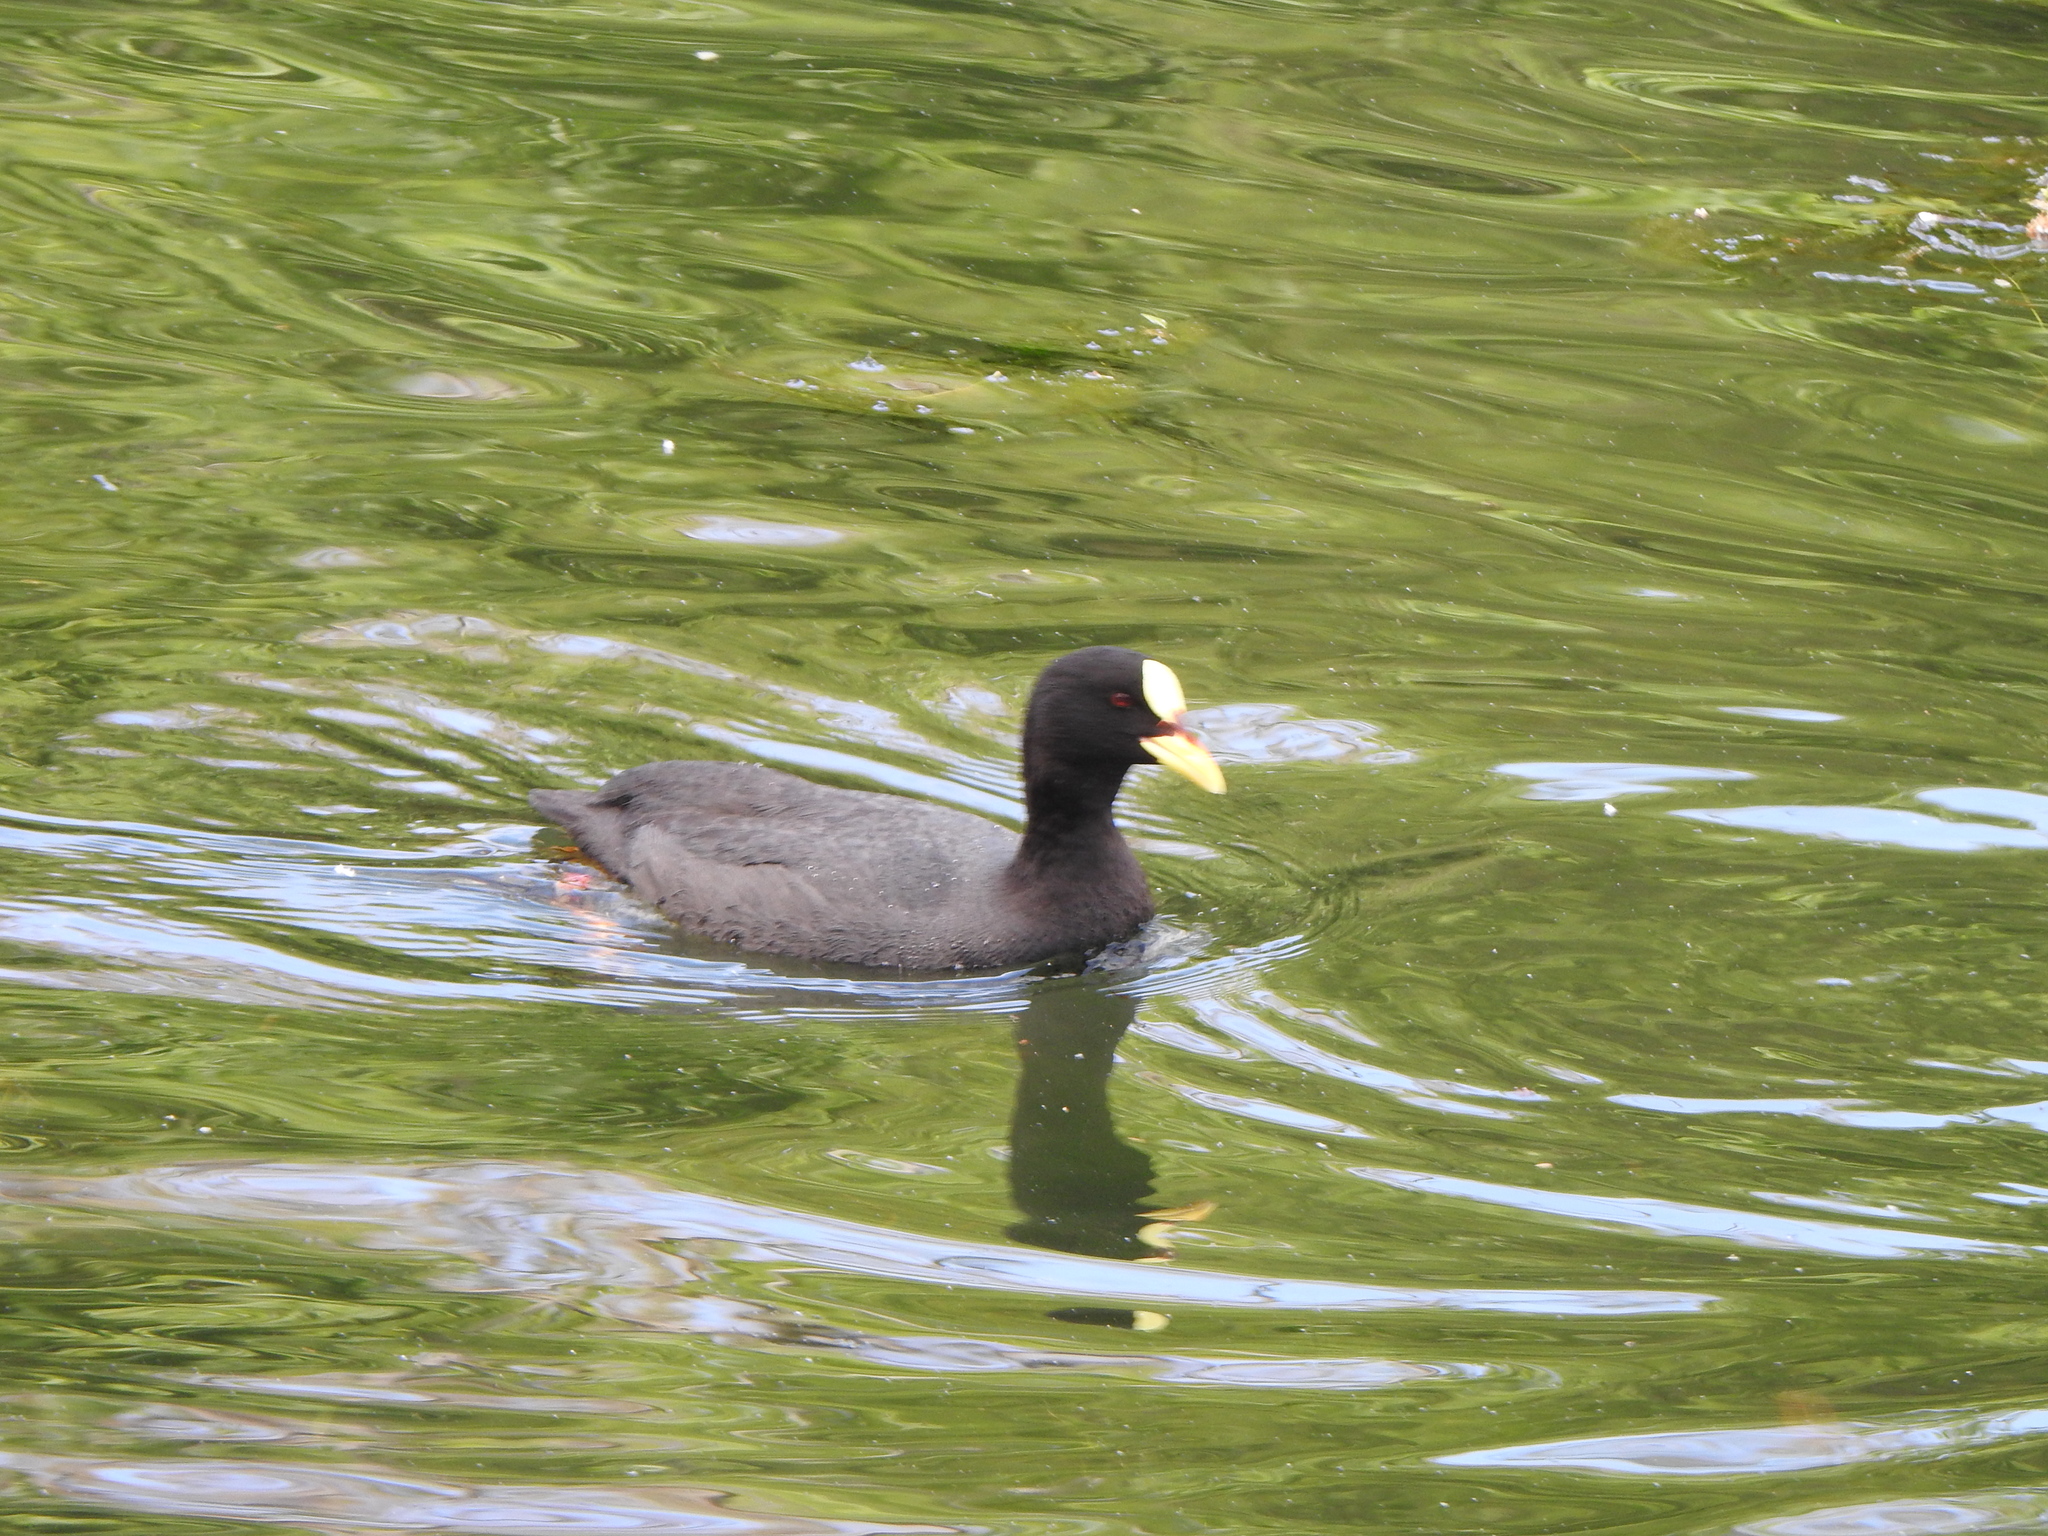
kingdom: Animalia
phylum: Chordata
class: Aves
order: Gruiformes
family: Rallidae
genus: Fulica
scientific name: Fulica armillata
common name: Red-gartered coot
